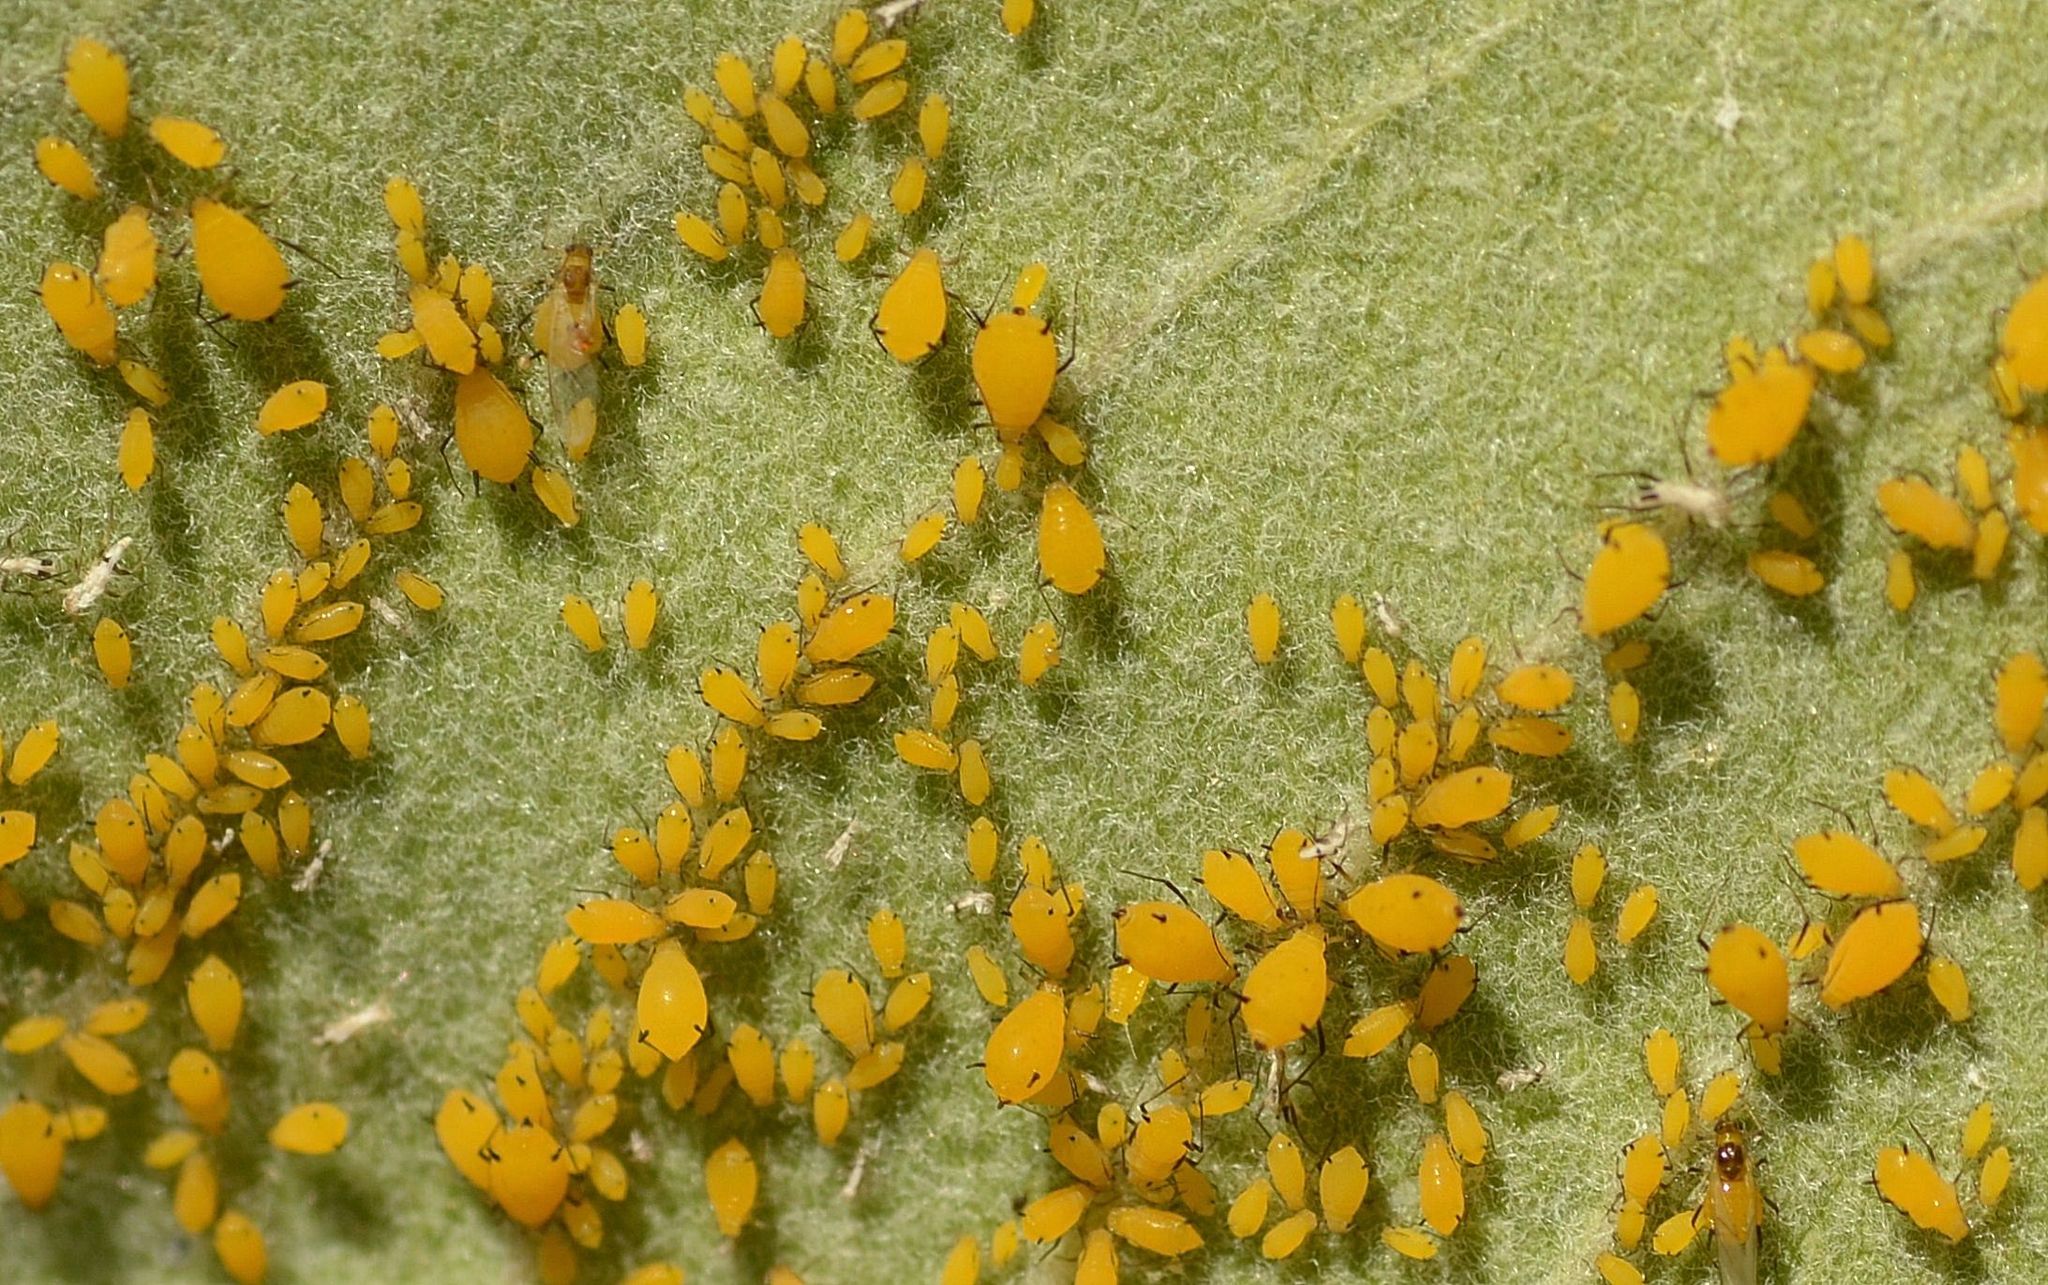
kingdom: Animalia
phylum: Arthropoda
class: Insecta
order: Hemiptera
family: Aphididae
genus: Aphis
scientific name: Aphis nerii
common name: Oleander aphid
